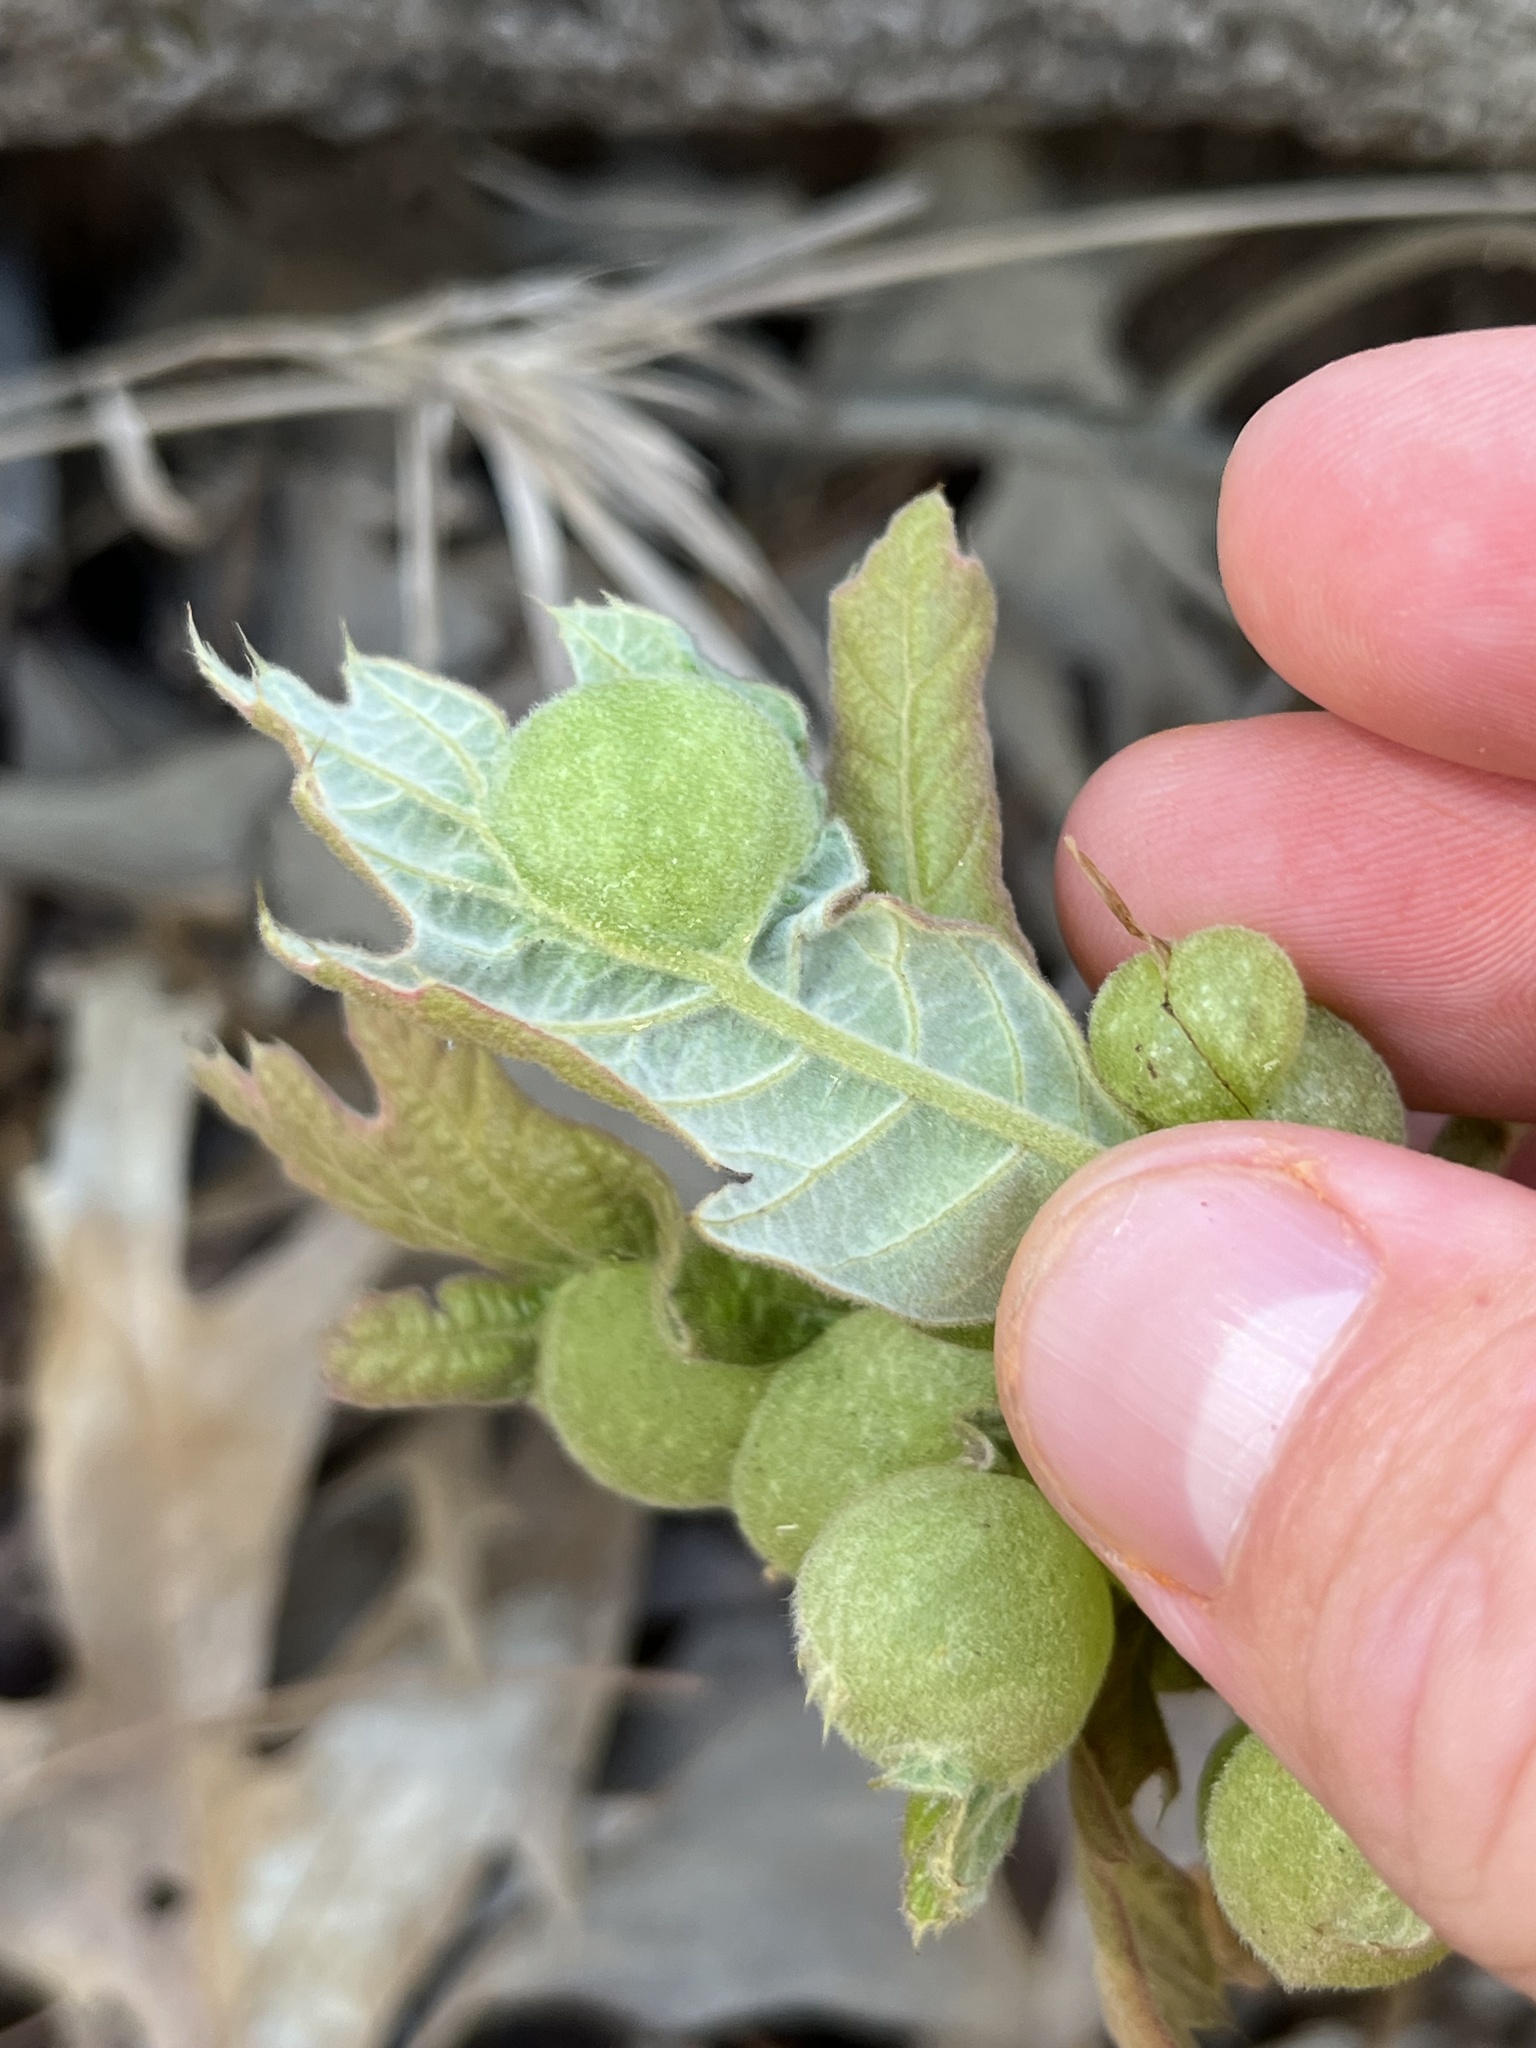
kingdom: Animalia
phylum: Arthropoda
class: Insecta
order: Hymenoptera
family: Cynipidae
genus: Dryocosmus
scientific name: Dryocosmus quercuspalustris
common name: Succulent oak gall wasp
